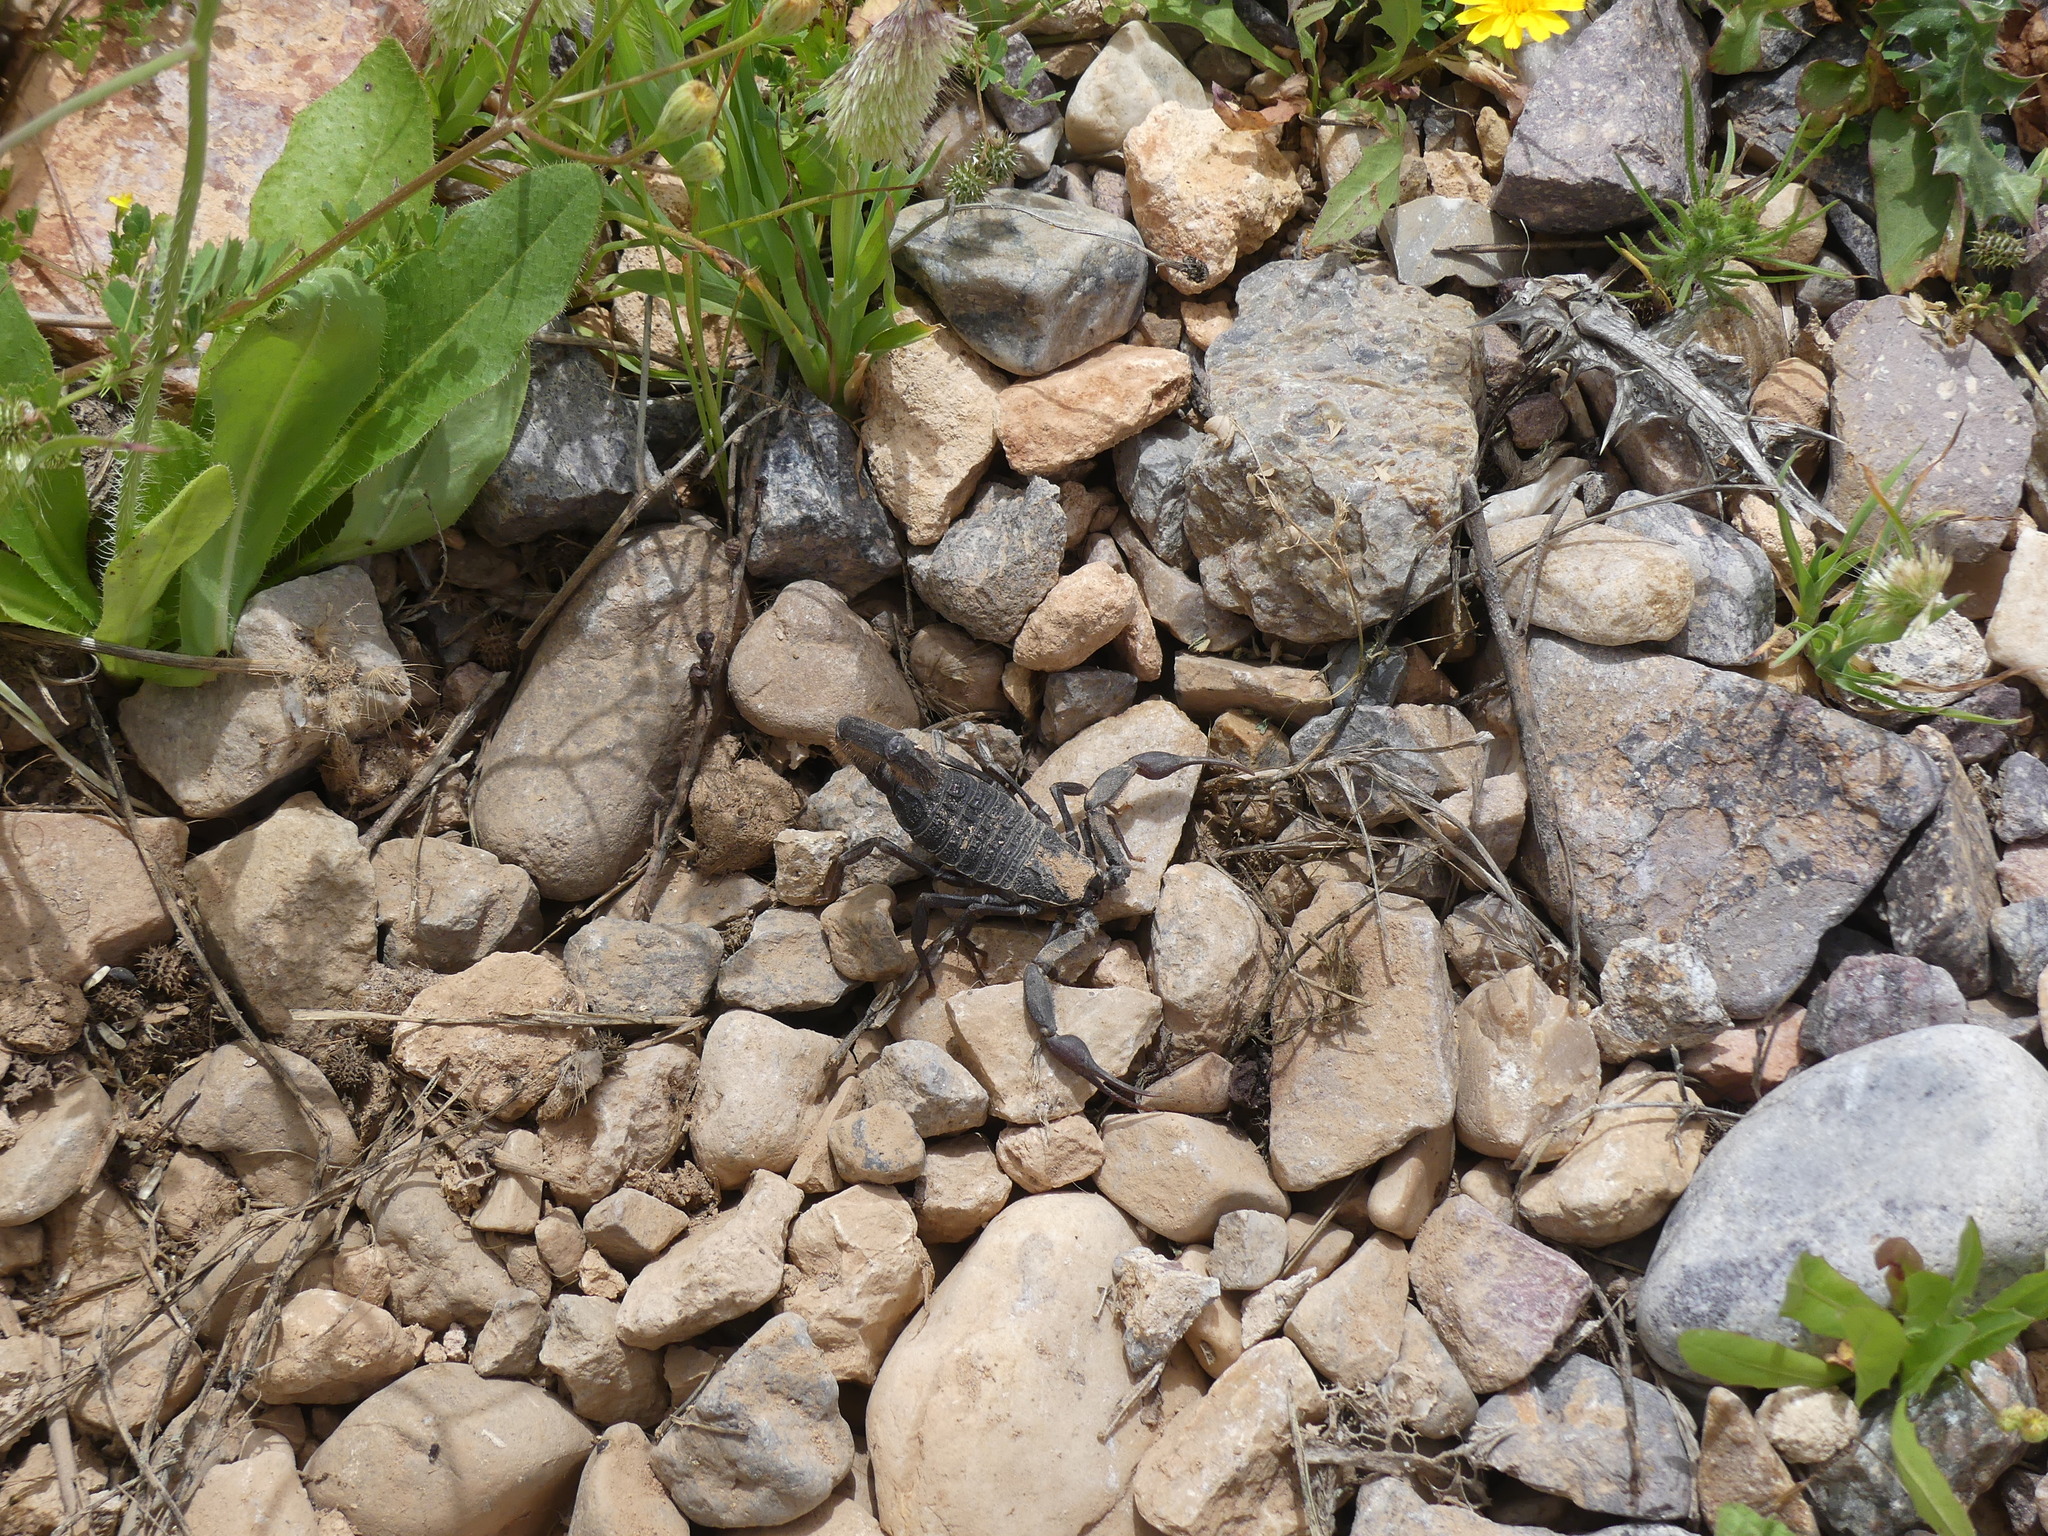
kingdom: Animalia
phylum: Arthropoda
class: Arachnida
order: Scorpiones
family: Buthidae
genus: Hottentotta
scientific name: Hottentotta gentili
